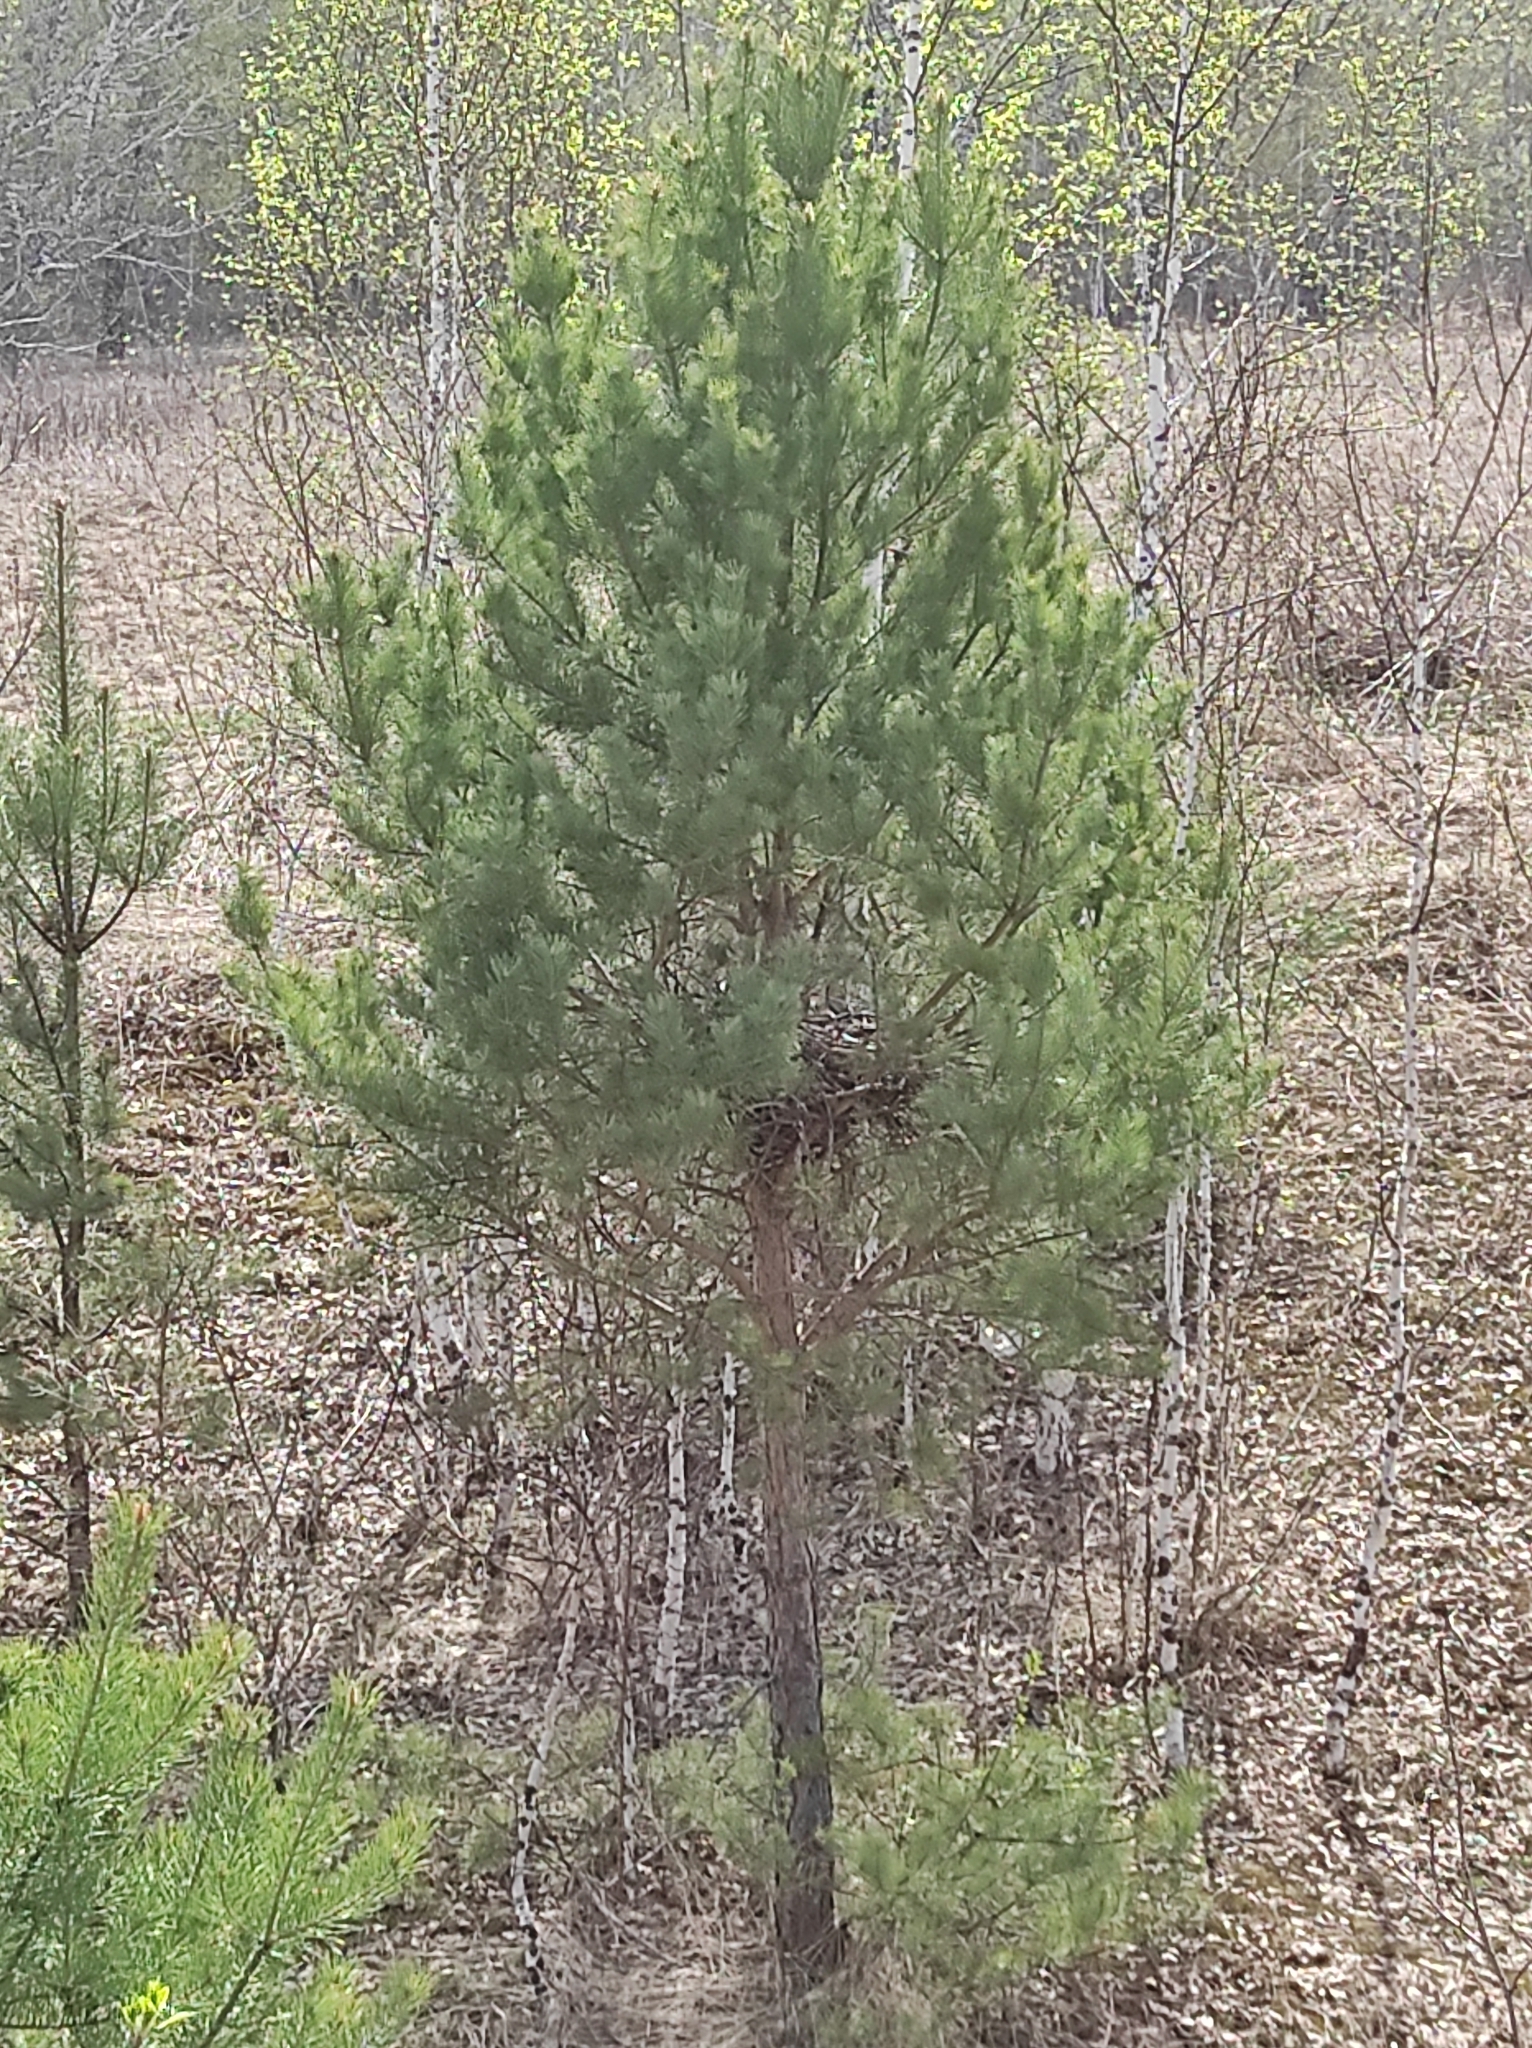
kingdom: Plantae
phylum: Tracheophyta
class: Pinopsida
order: Pinales
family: Pinaceae
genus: Pinus
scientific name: Pinus sylvestris
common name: Scots pine
